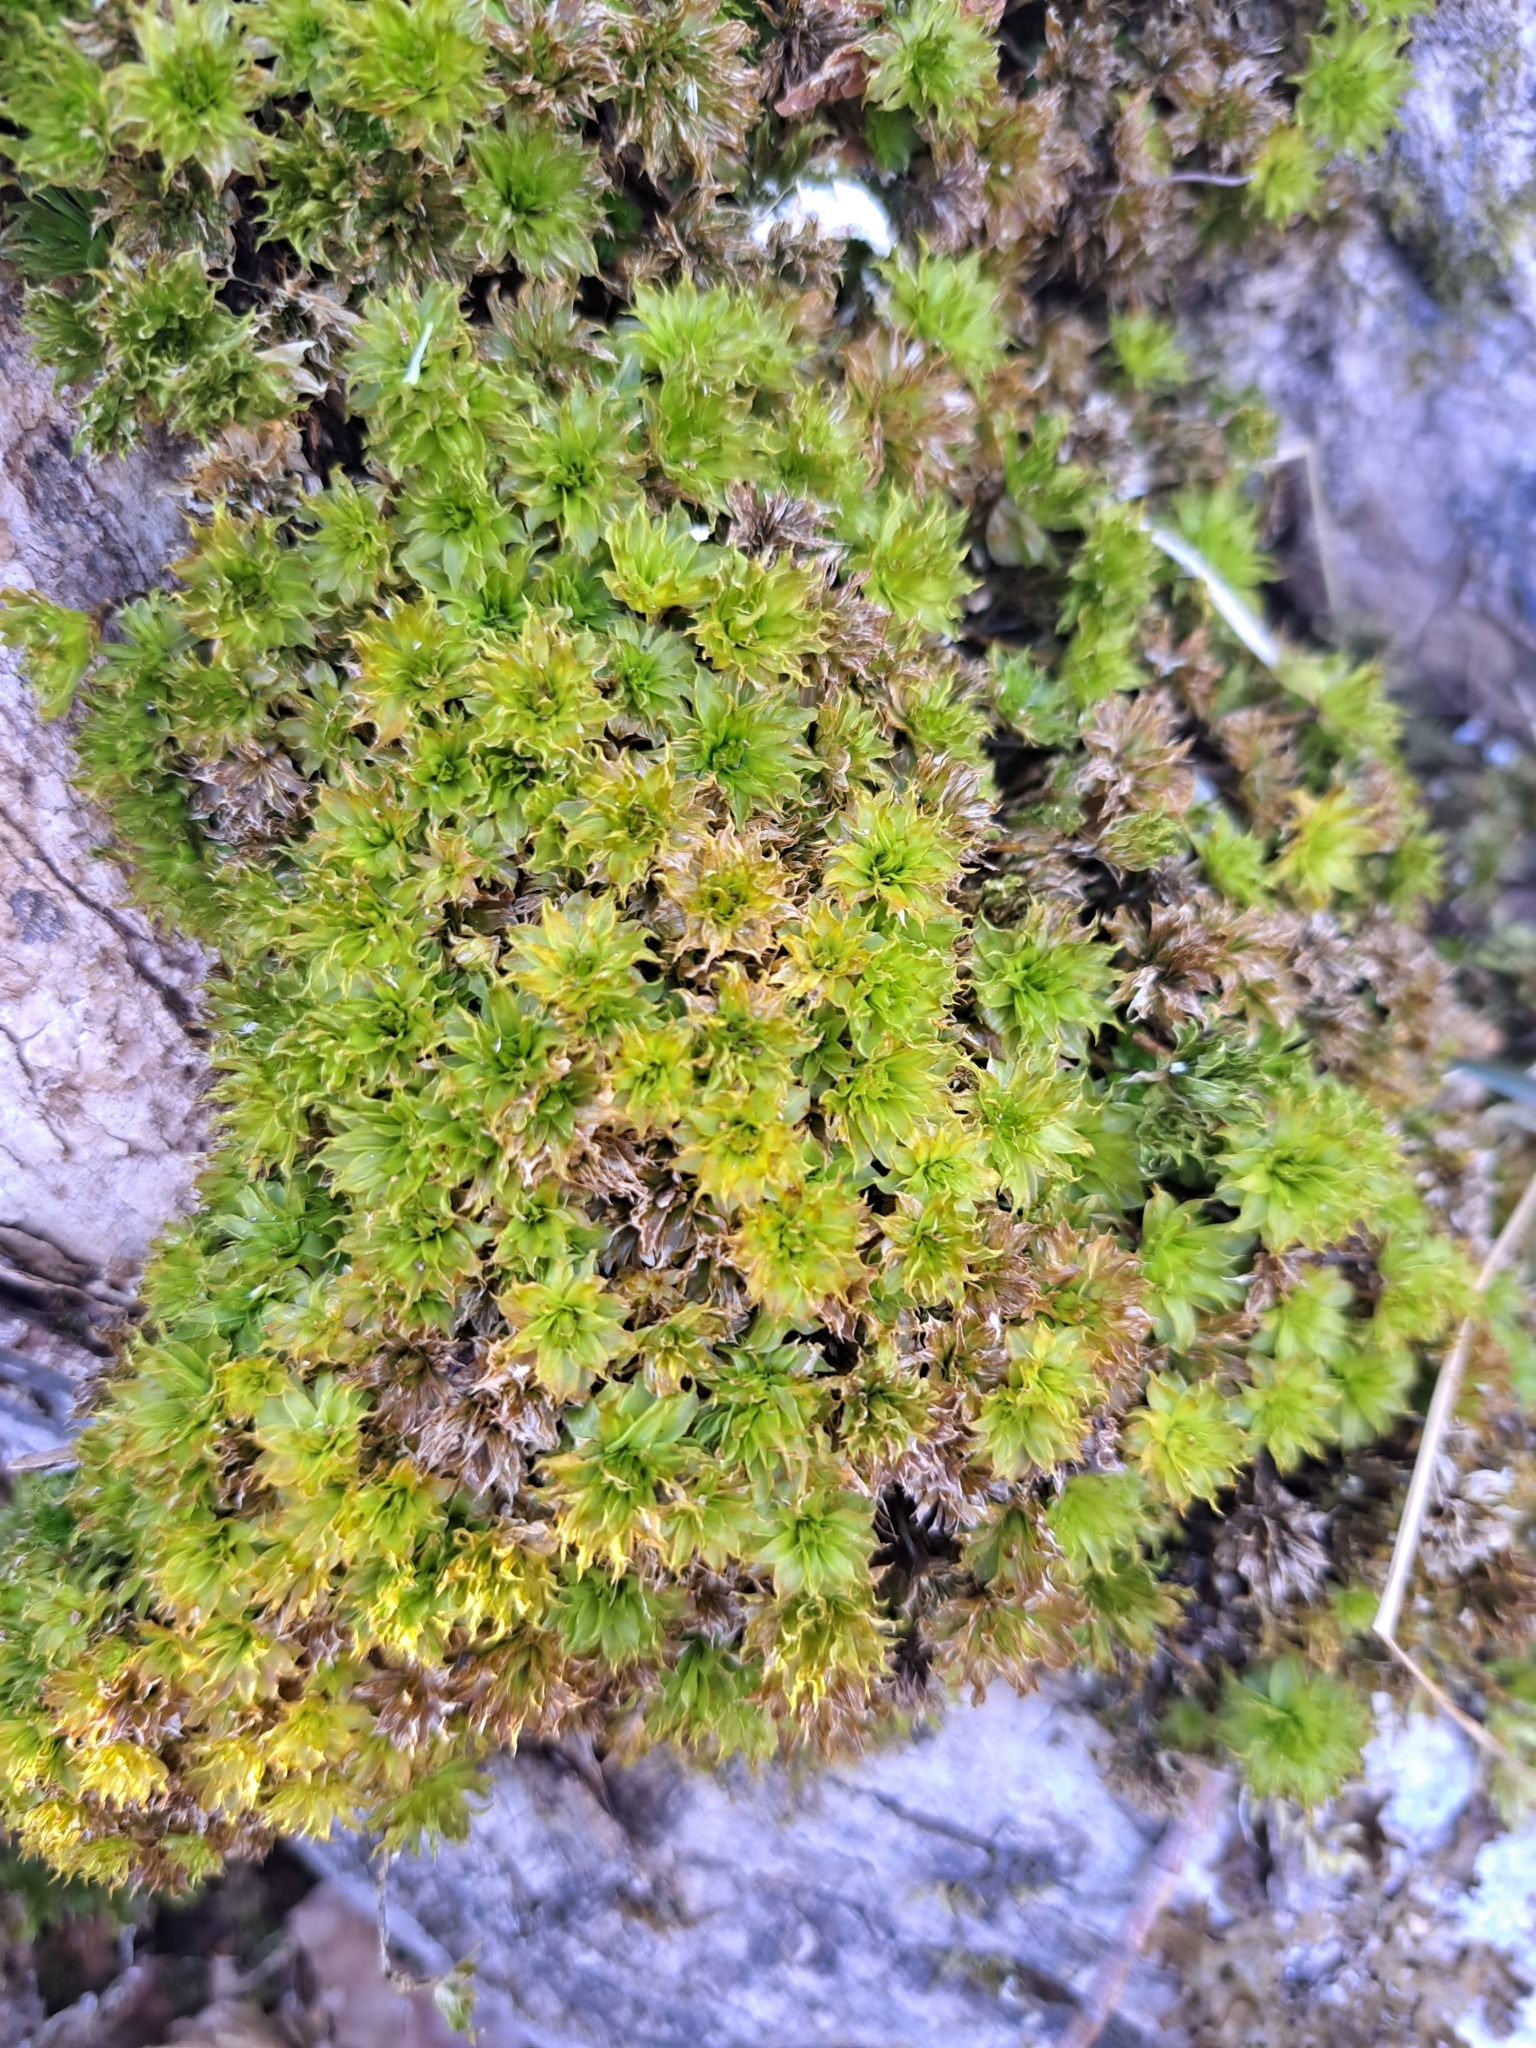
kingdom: Plantae
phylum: Bryophyta
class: Bryopsida
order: Bryales
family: Bryaceae
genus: Rhodobryum
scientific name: Rhodobryum ontariense
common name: Ontario rhodobryum moss
